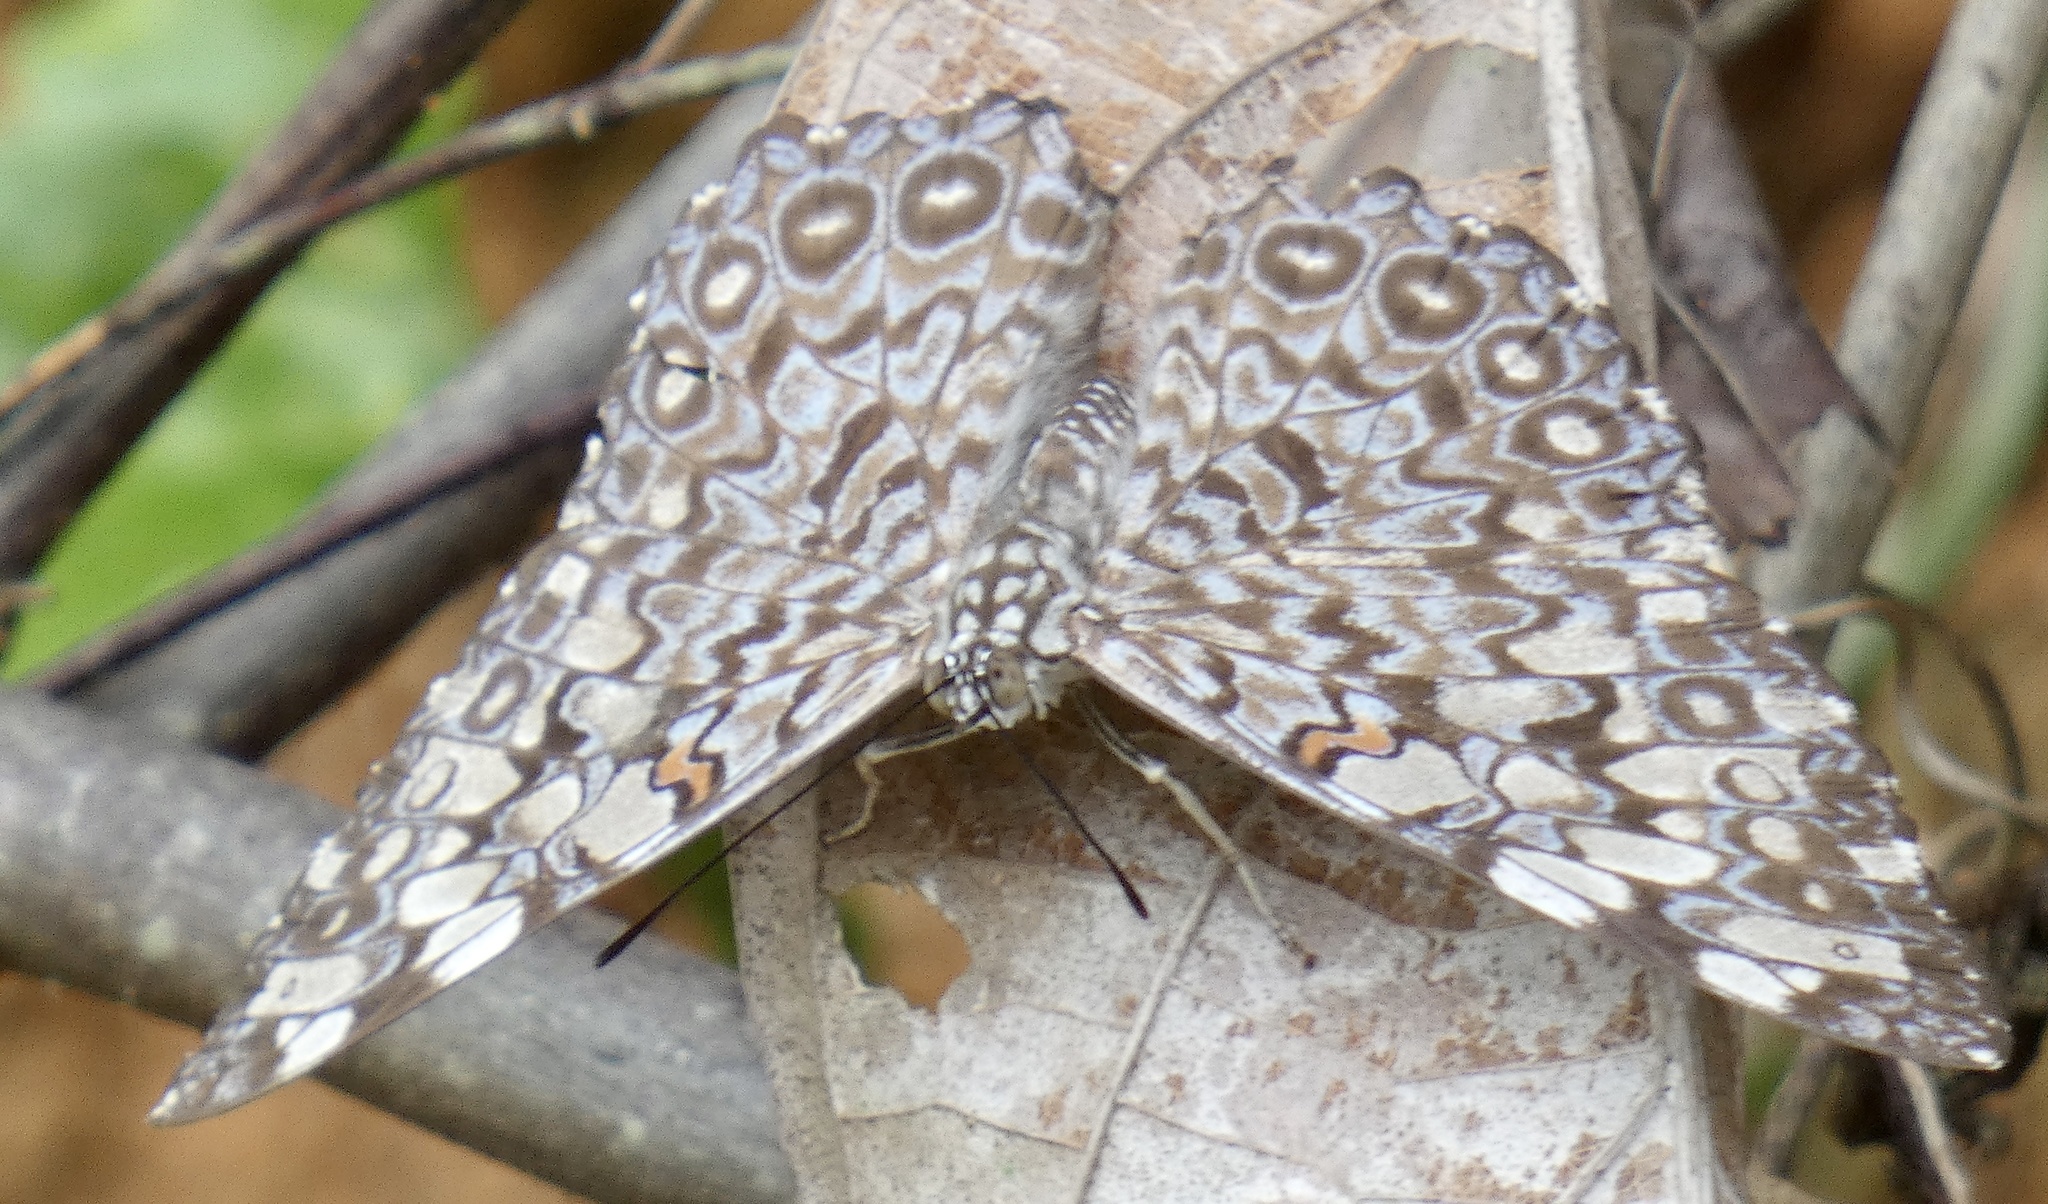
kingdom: Animalia
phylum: Arthropoda
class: Insecta
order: Lepidoptera
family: Nymphalidae
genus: Hamadryas
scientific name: Hamadryas feronia
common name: Variable cracker
